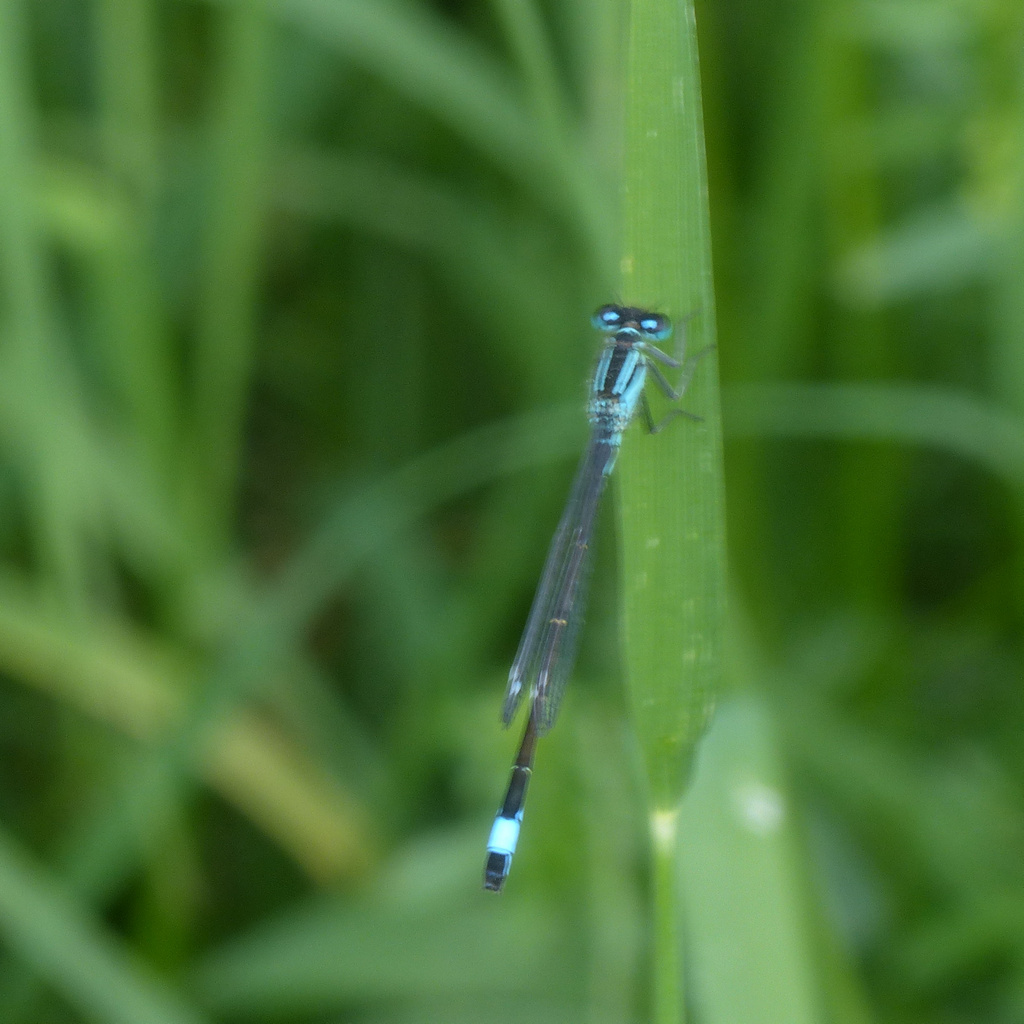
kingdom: Animalia
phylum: Arthropoda
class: Insecta
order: Odonata
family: Coenagrionidae
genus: Ischnura
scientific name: Ischnura elegans
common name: Blue-tailed damselfly
